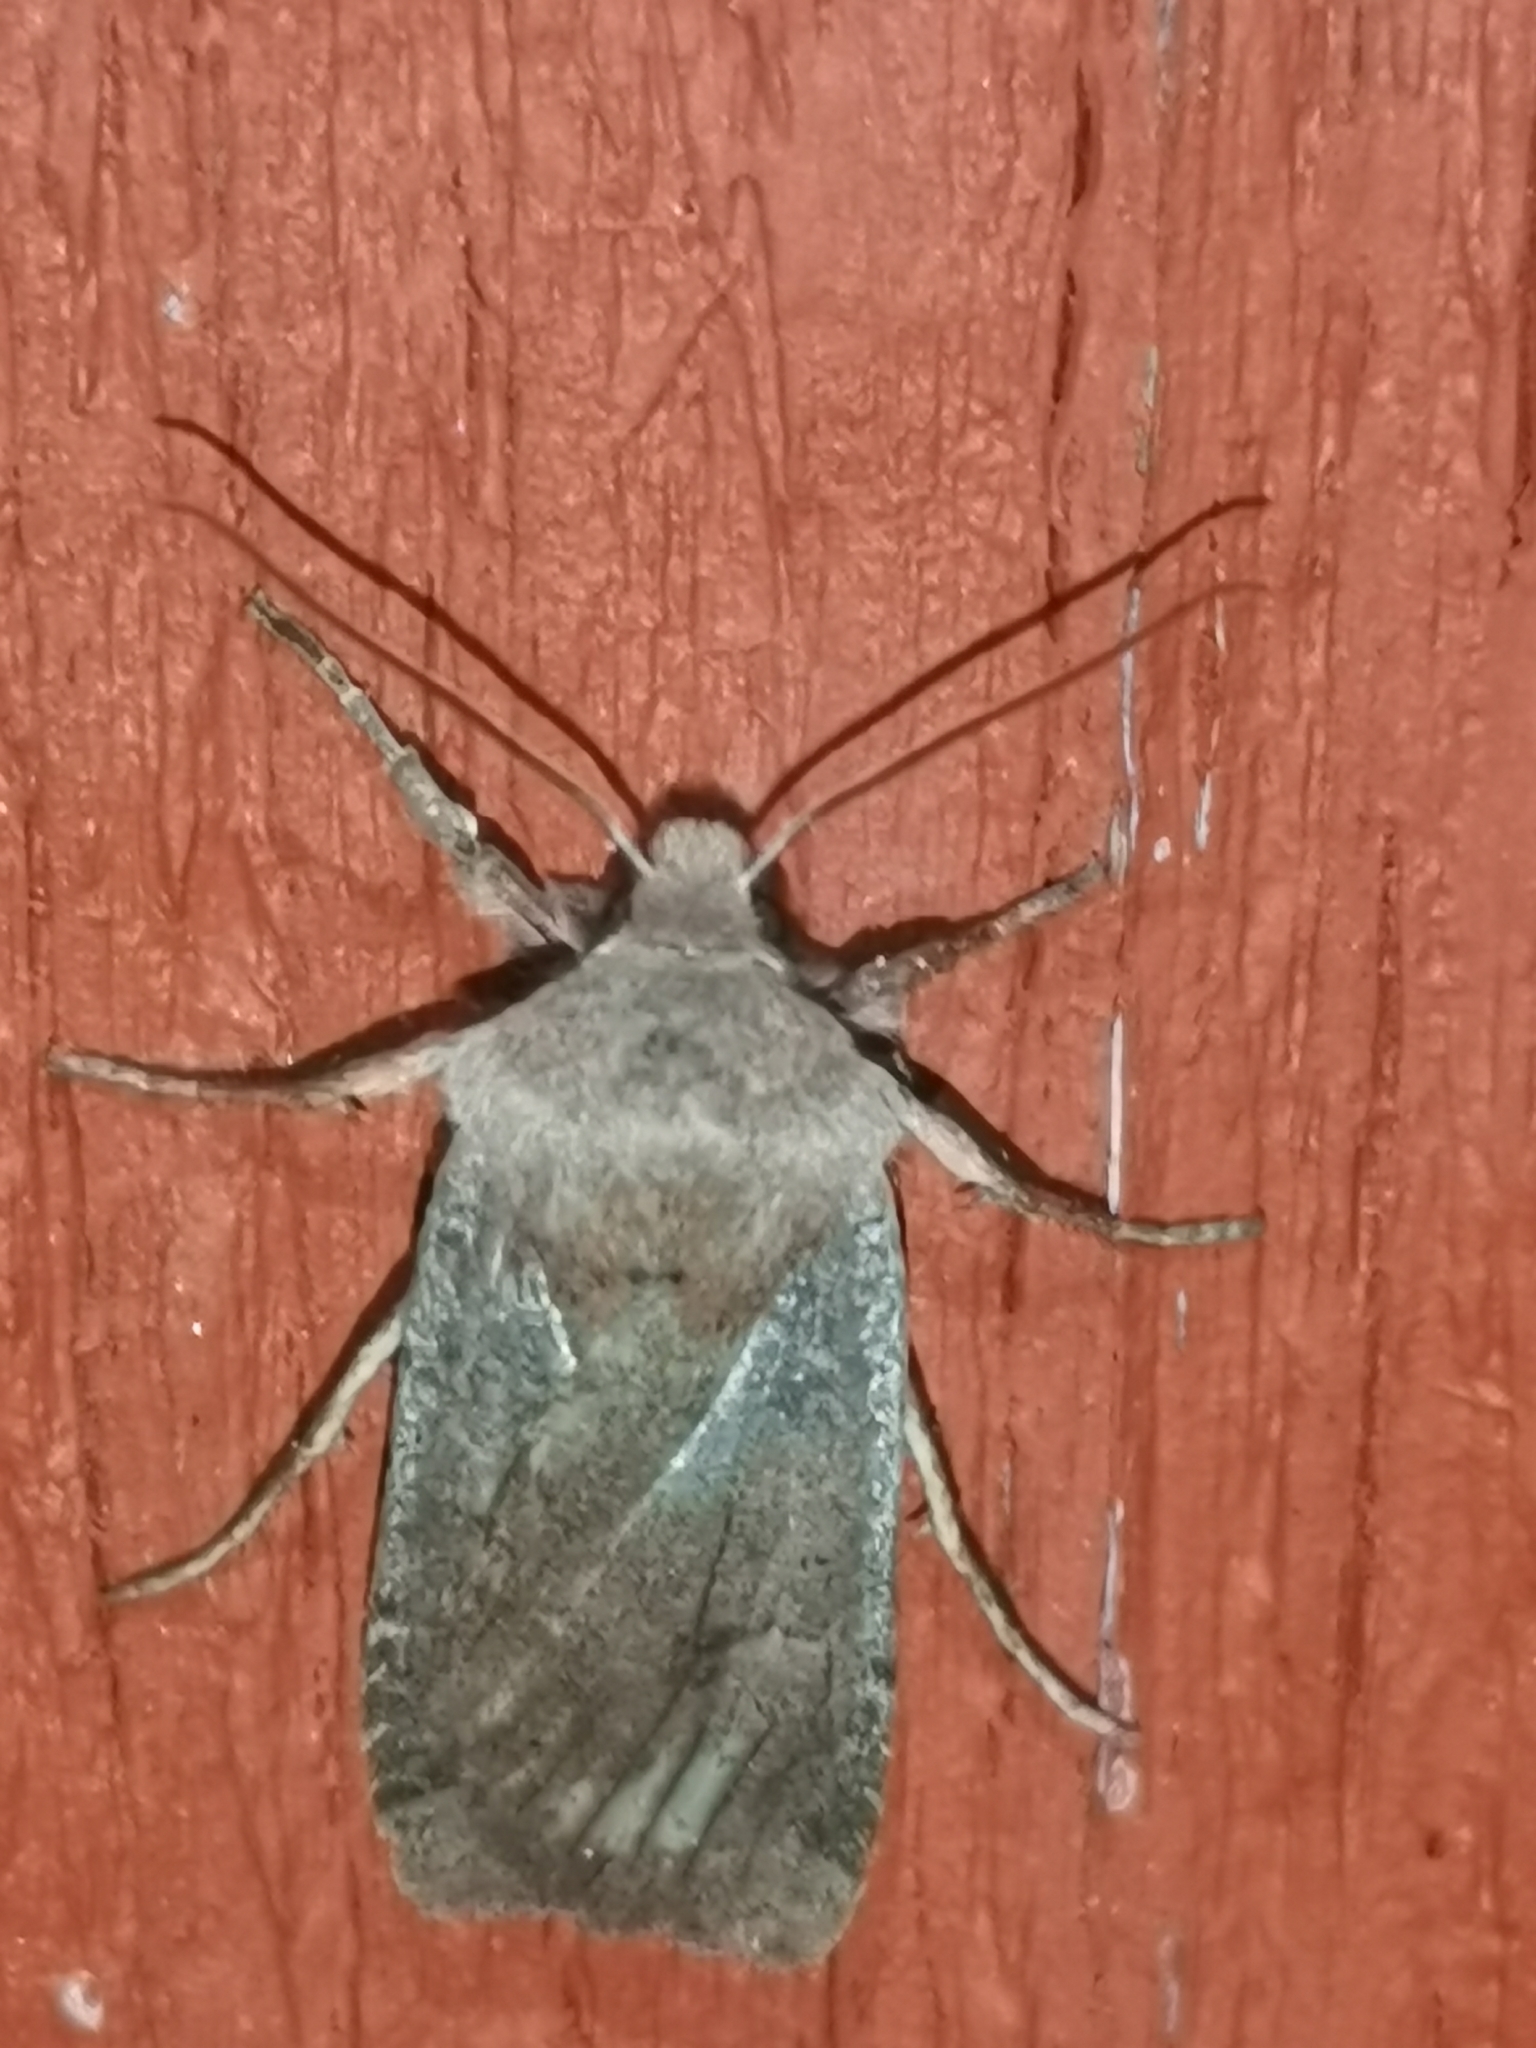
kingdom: Animalia
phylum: Arthropoda
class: Insecta
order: Lepidoptera
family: Noctuidae
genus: Conistra
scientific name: Conistra vaccinii
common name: Chestnut
